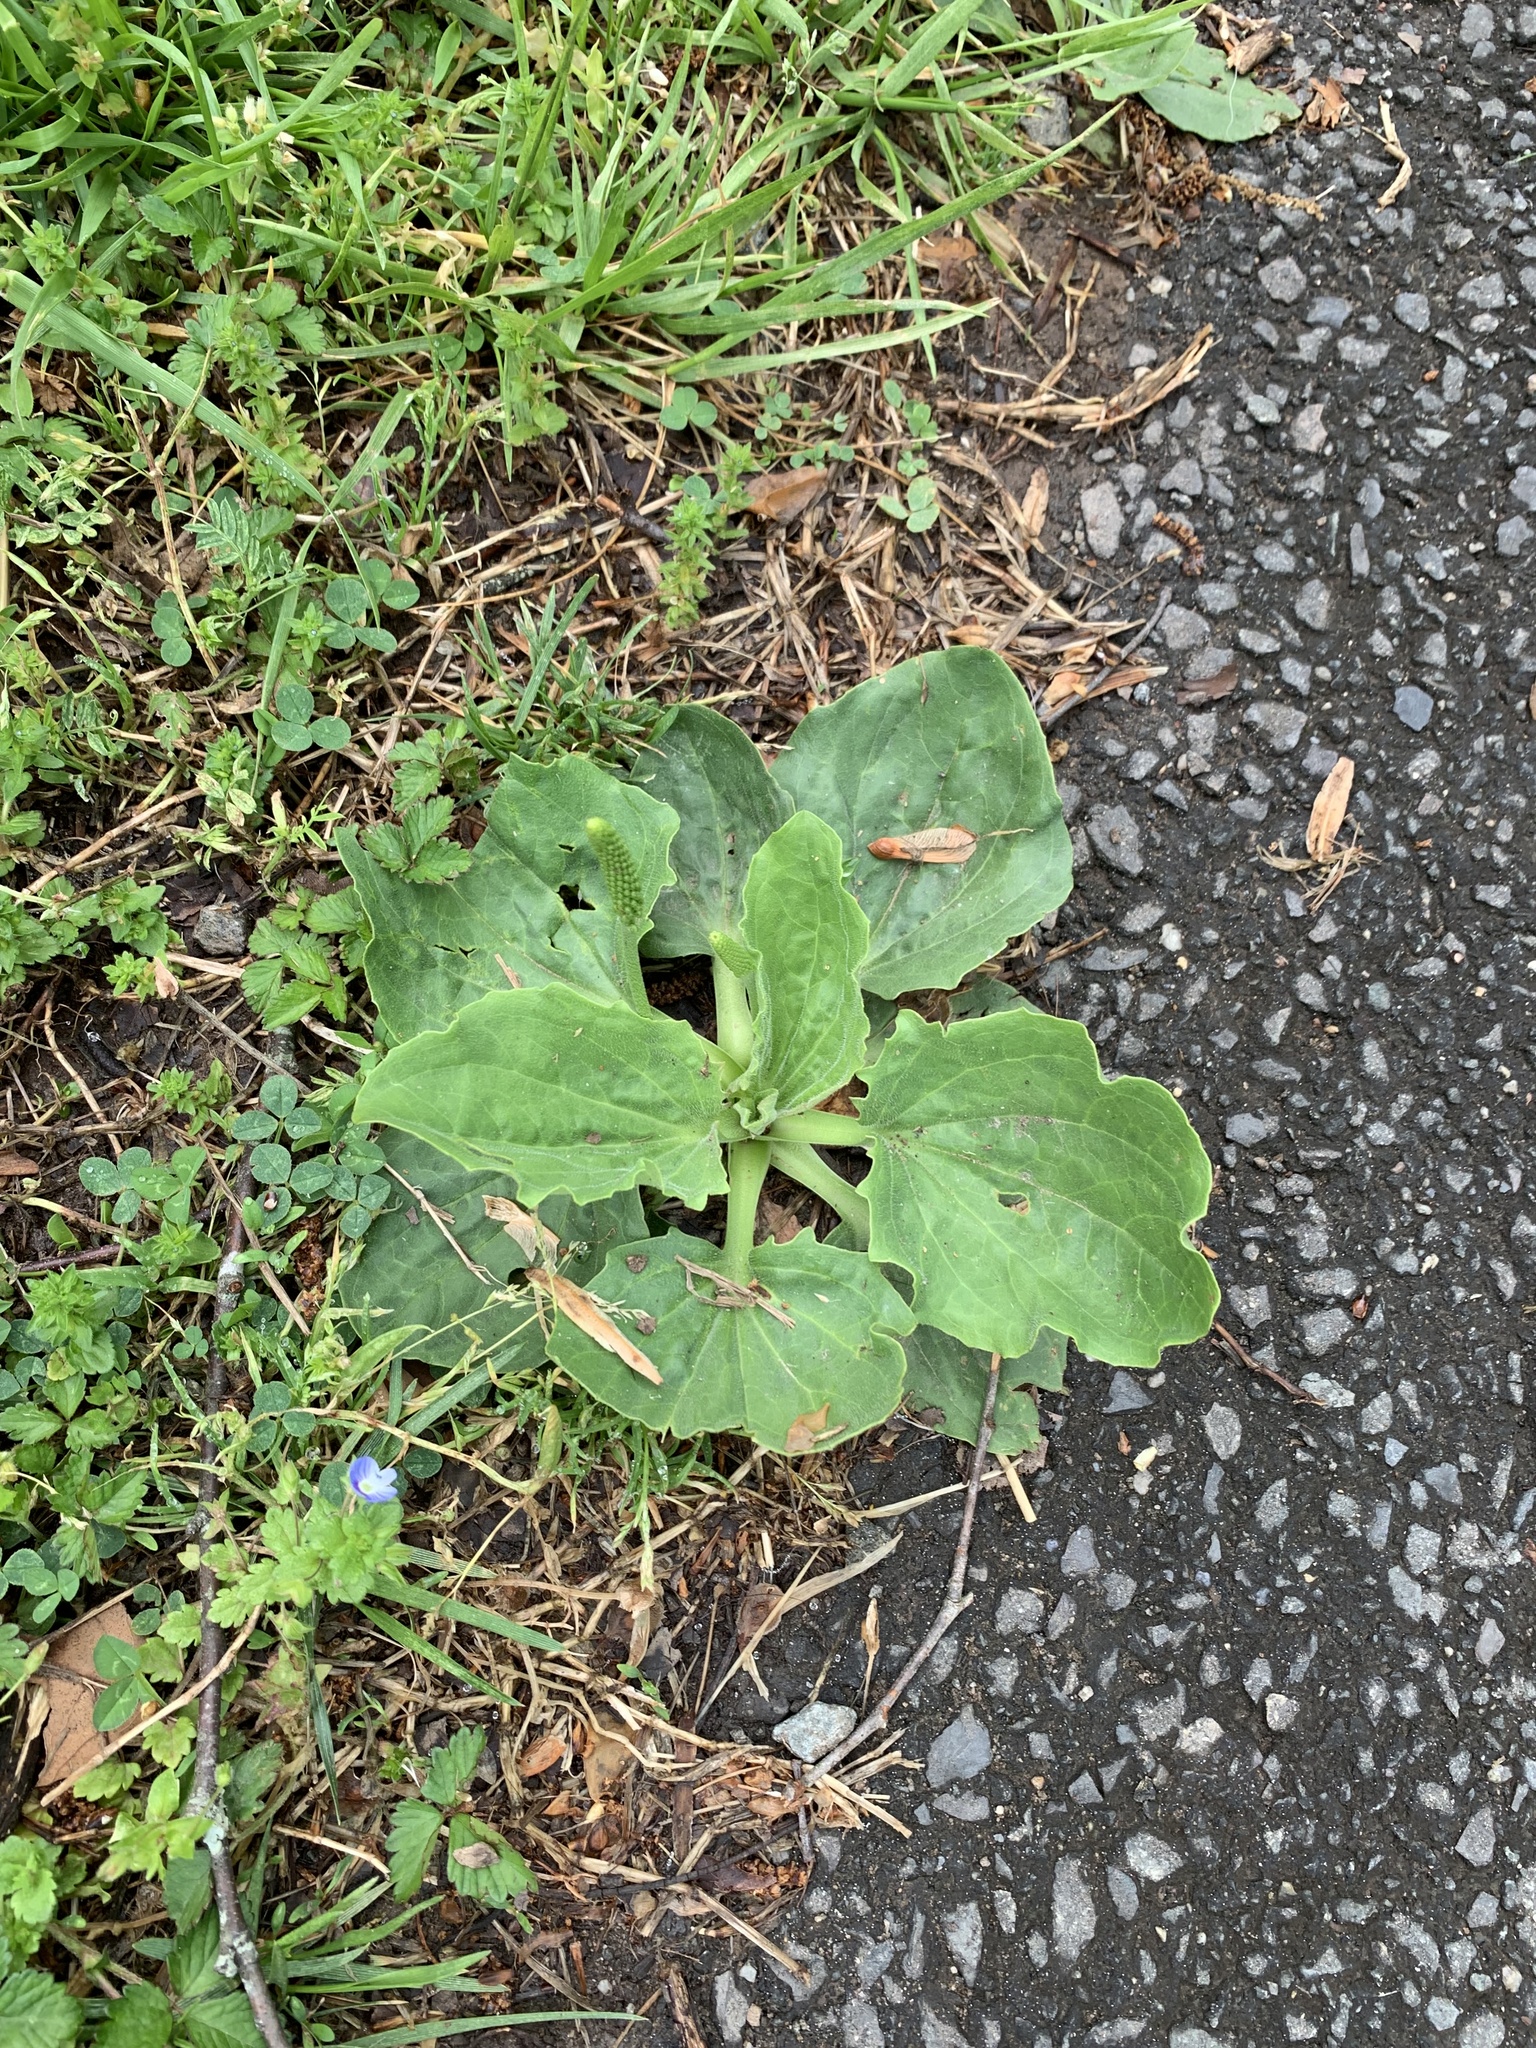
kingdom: Plantae
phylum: Tracheophyta
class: Magnoliopsida
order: Lamiales
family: Plantaginaceae
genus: Plantago
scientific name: Plantago major
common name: Common plantain
